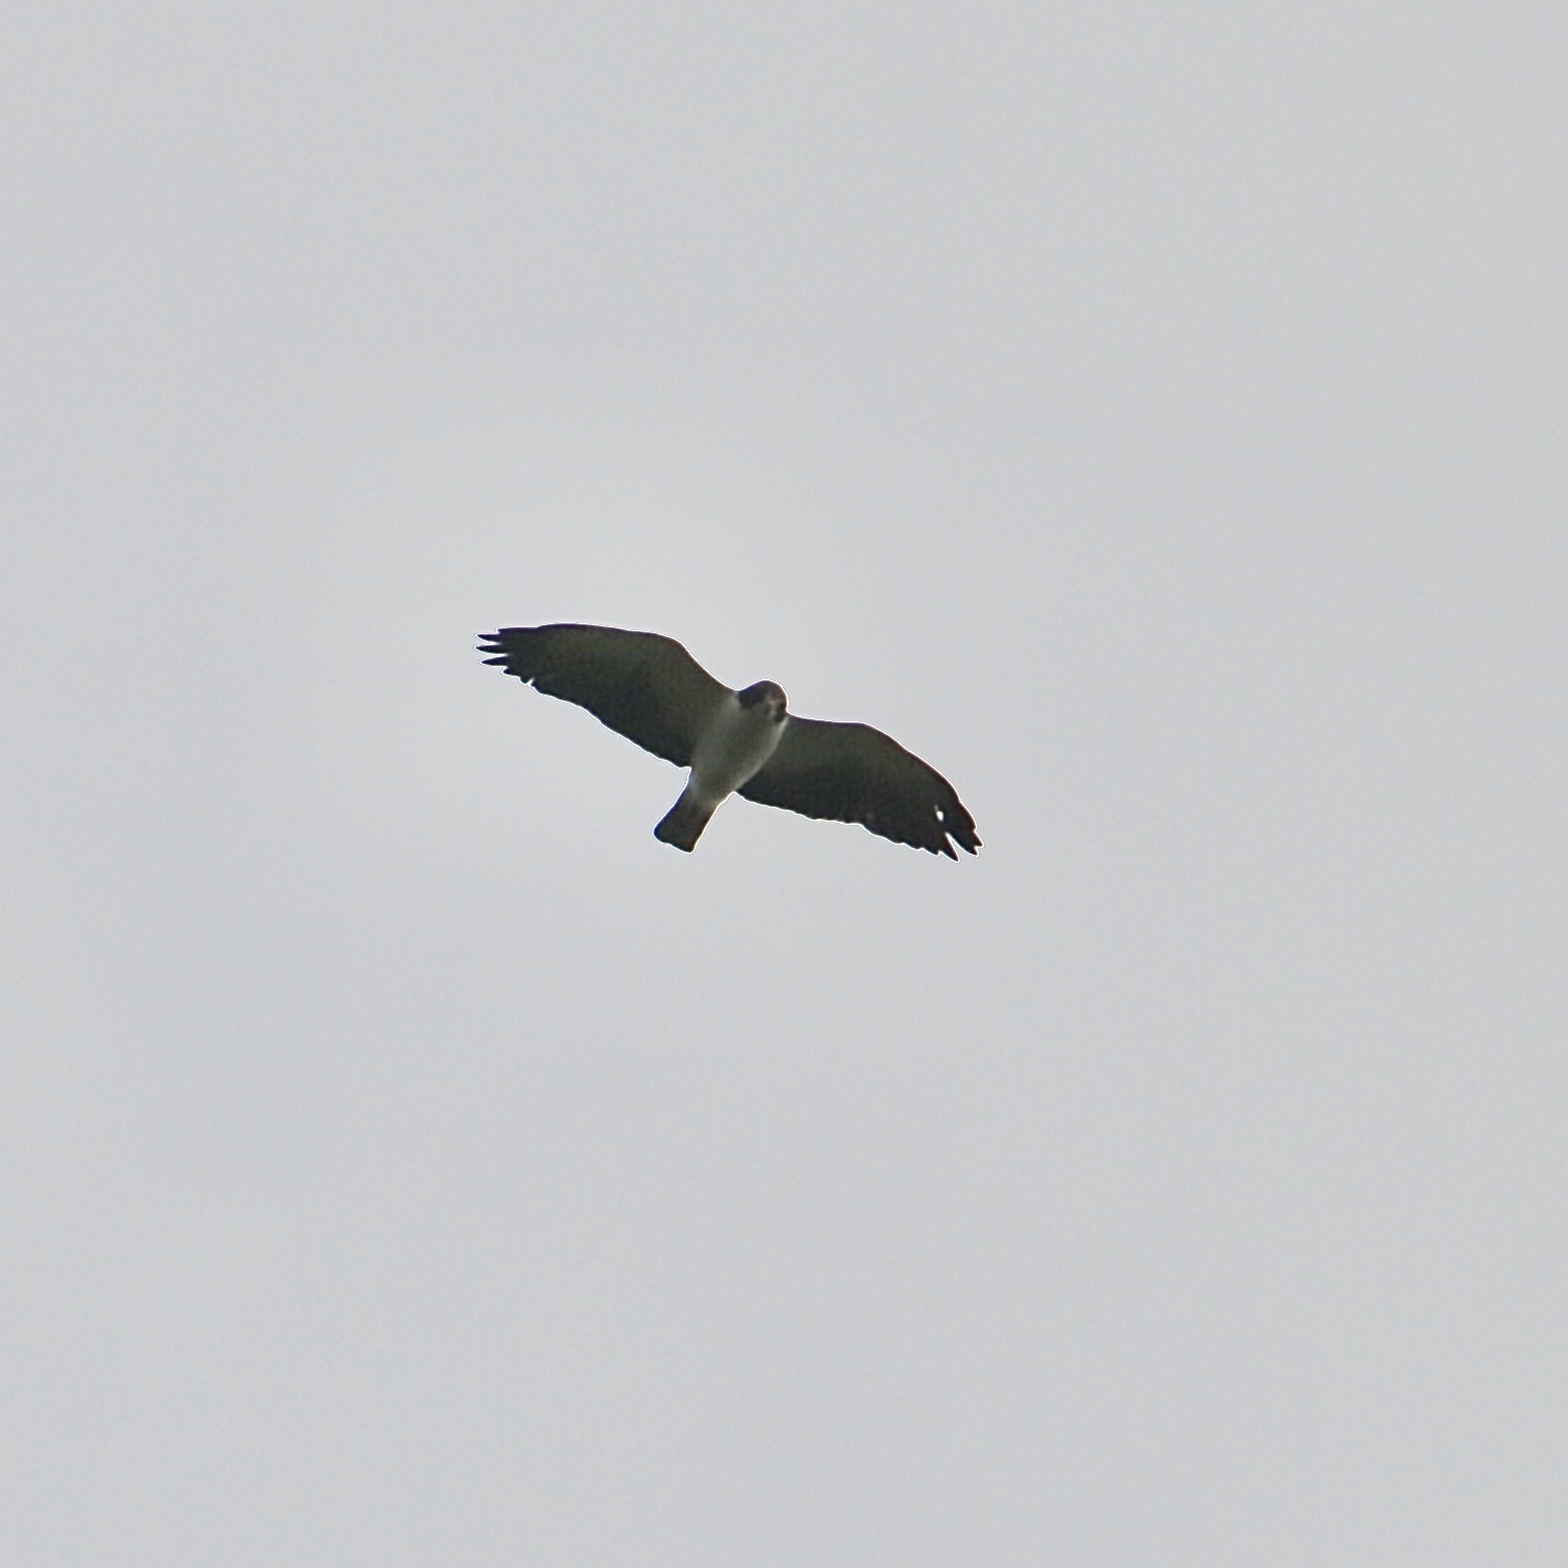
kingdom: Animalia
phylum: Chordata
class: Aves
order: Accipitriformes
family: Accipitridae
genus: Buteo
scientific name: Buteo brachyurus
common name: Short-tailed hawk
